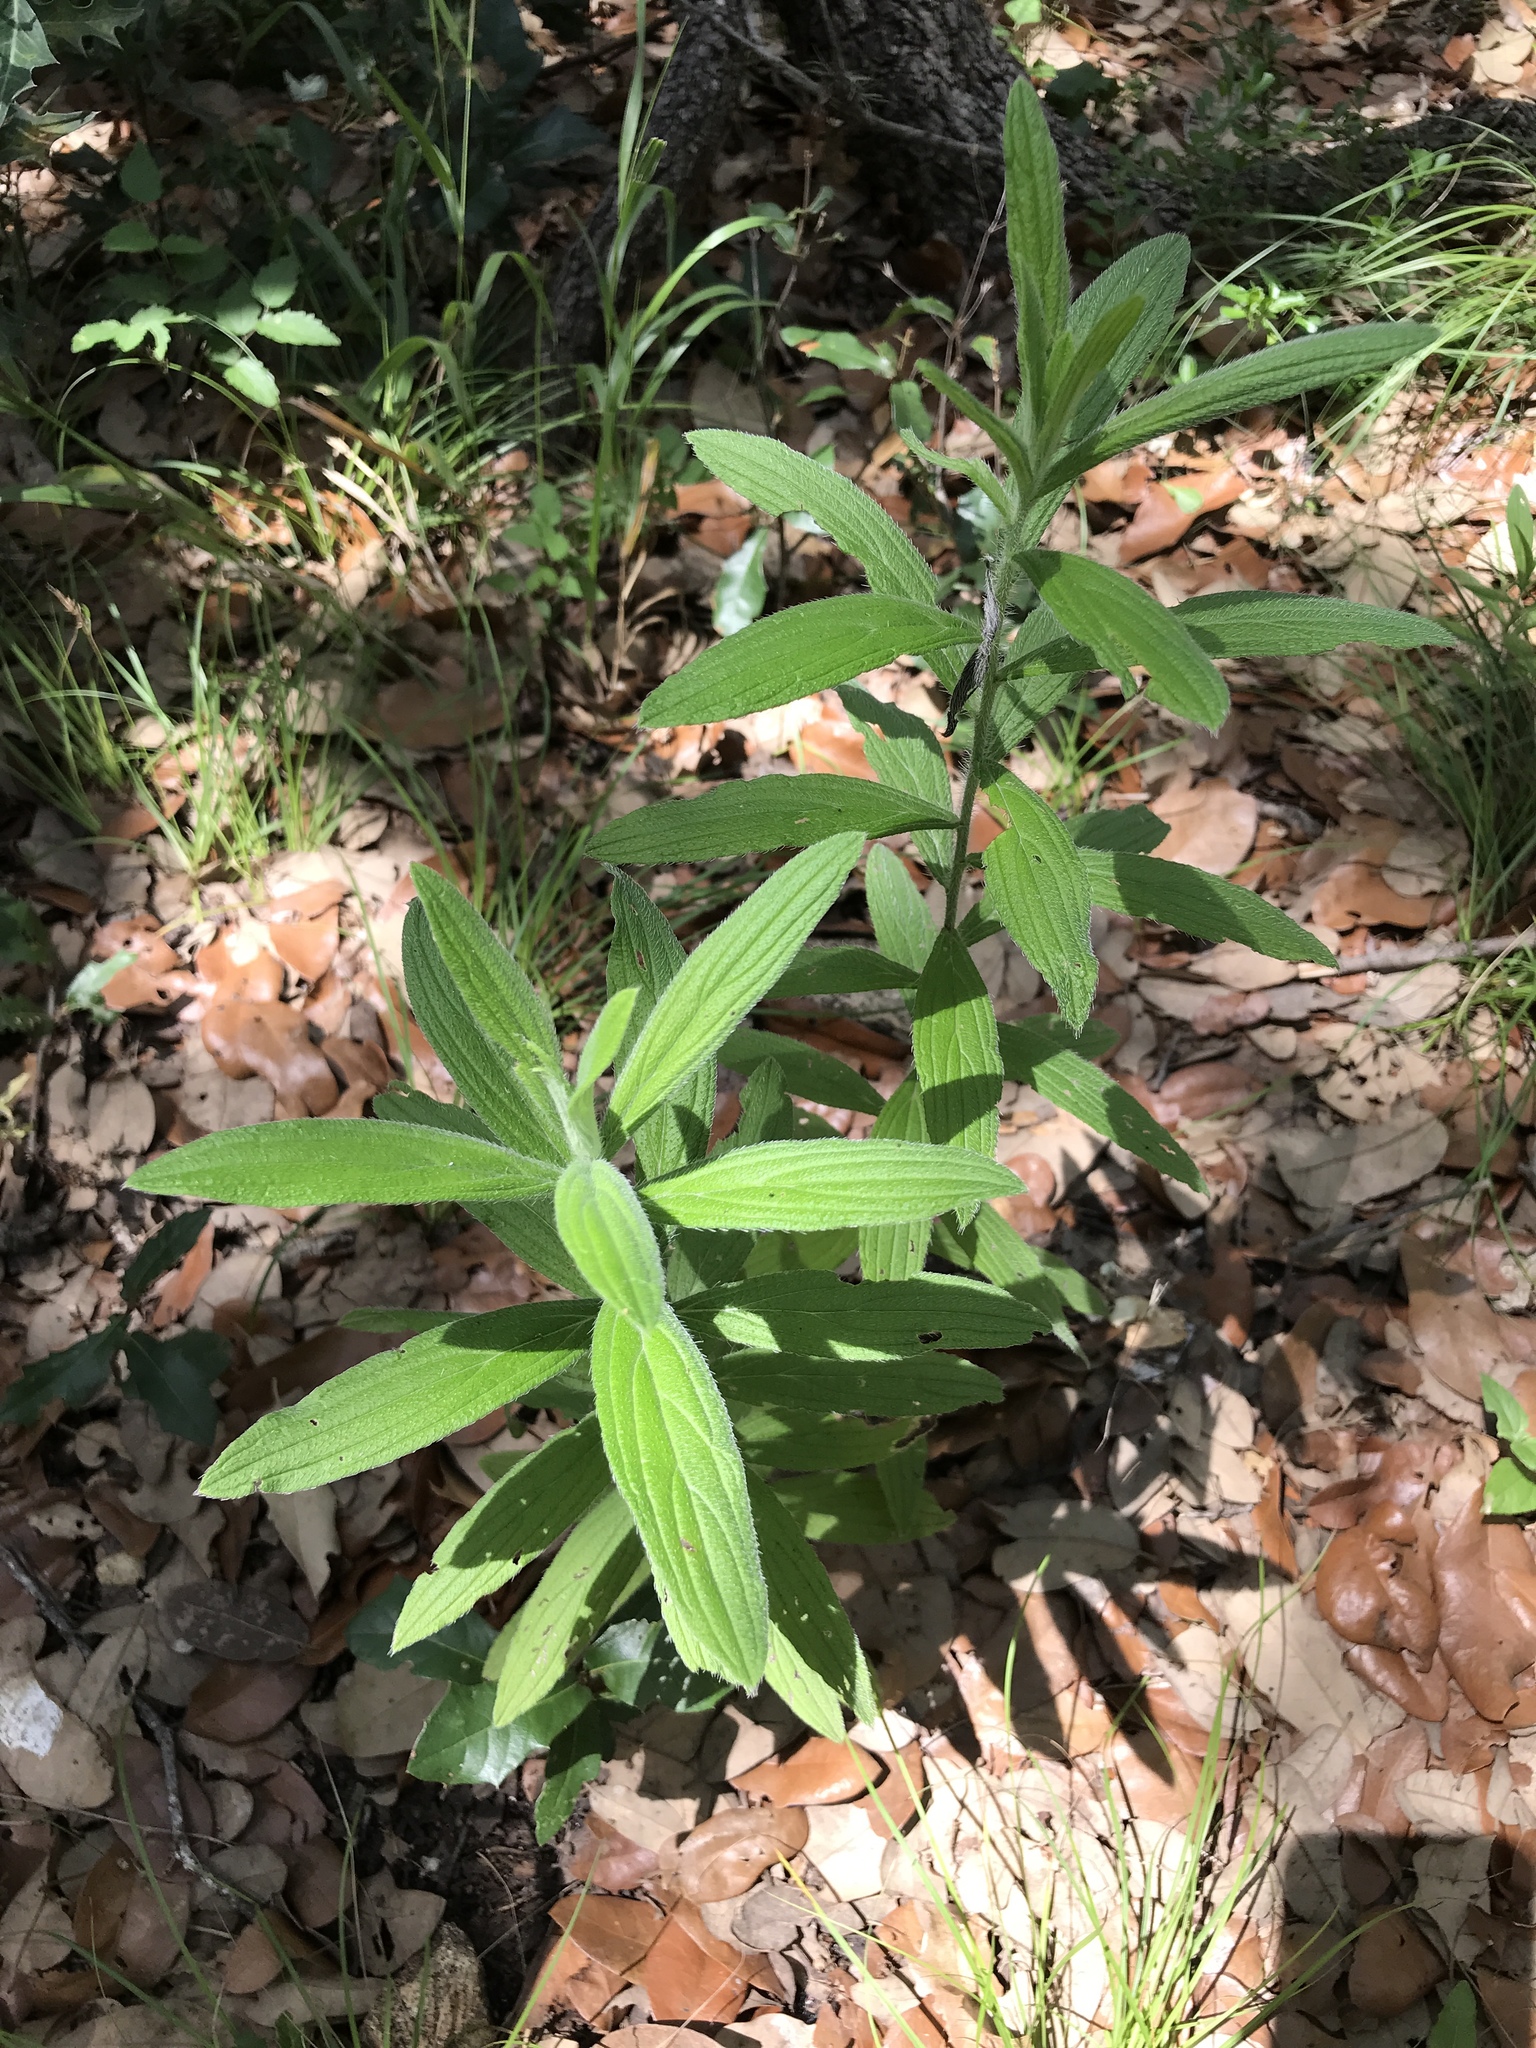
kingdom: Plantae
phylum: Tracheophyta
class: Magnoliopsida
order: Boraginales
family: Boraginaceae
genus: Lithospermum
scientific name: Lithospermum caroliniense
